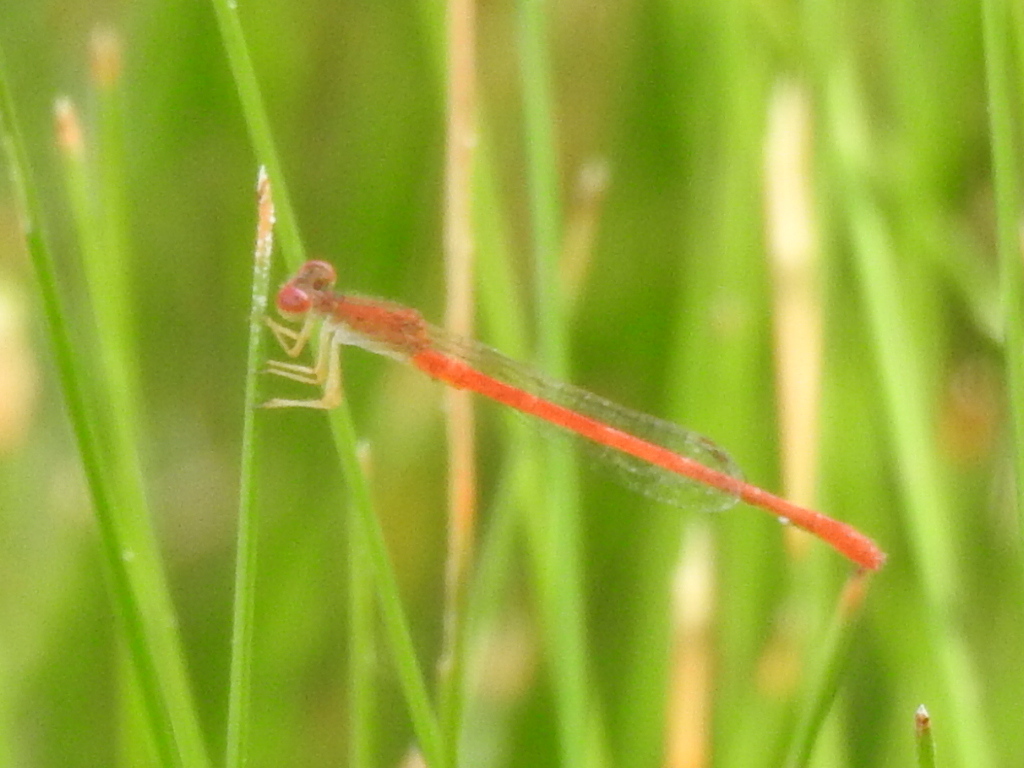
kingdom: Animalia
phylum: Arthropoda
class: Insecta
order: Odonata
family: Coenagrionidae
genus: Telebasis
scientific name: Telebasis salva
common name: Desert firetail
